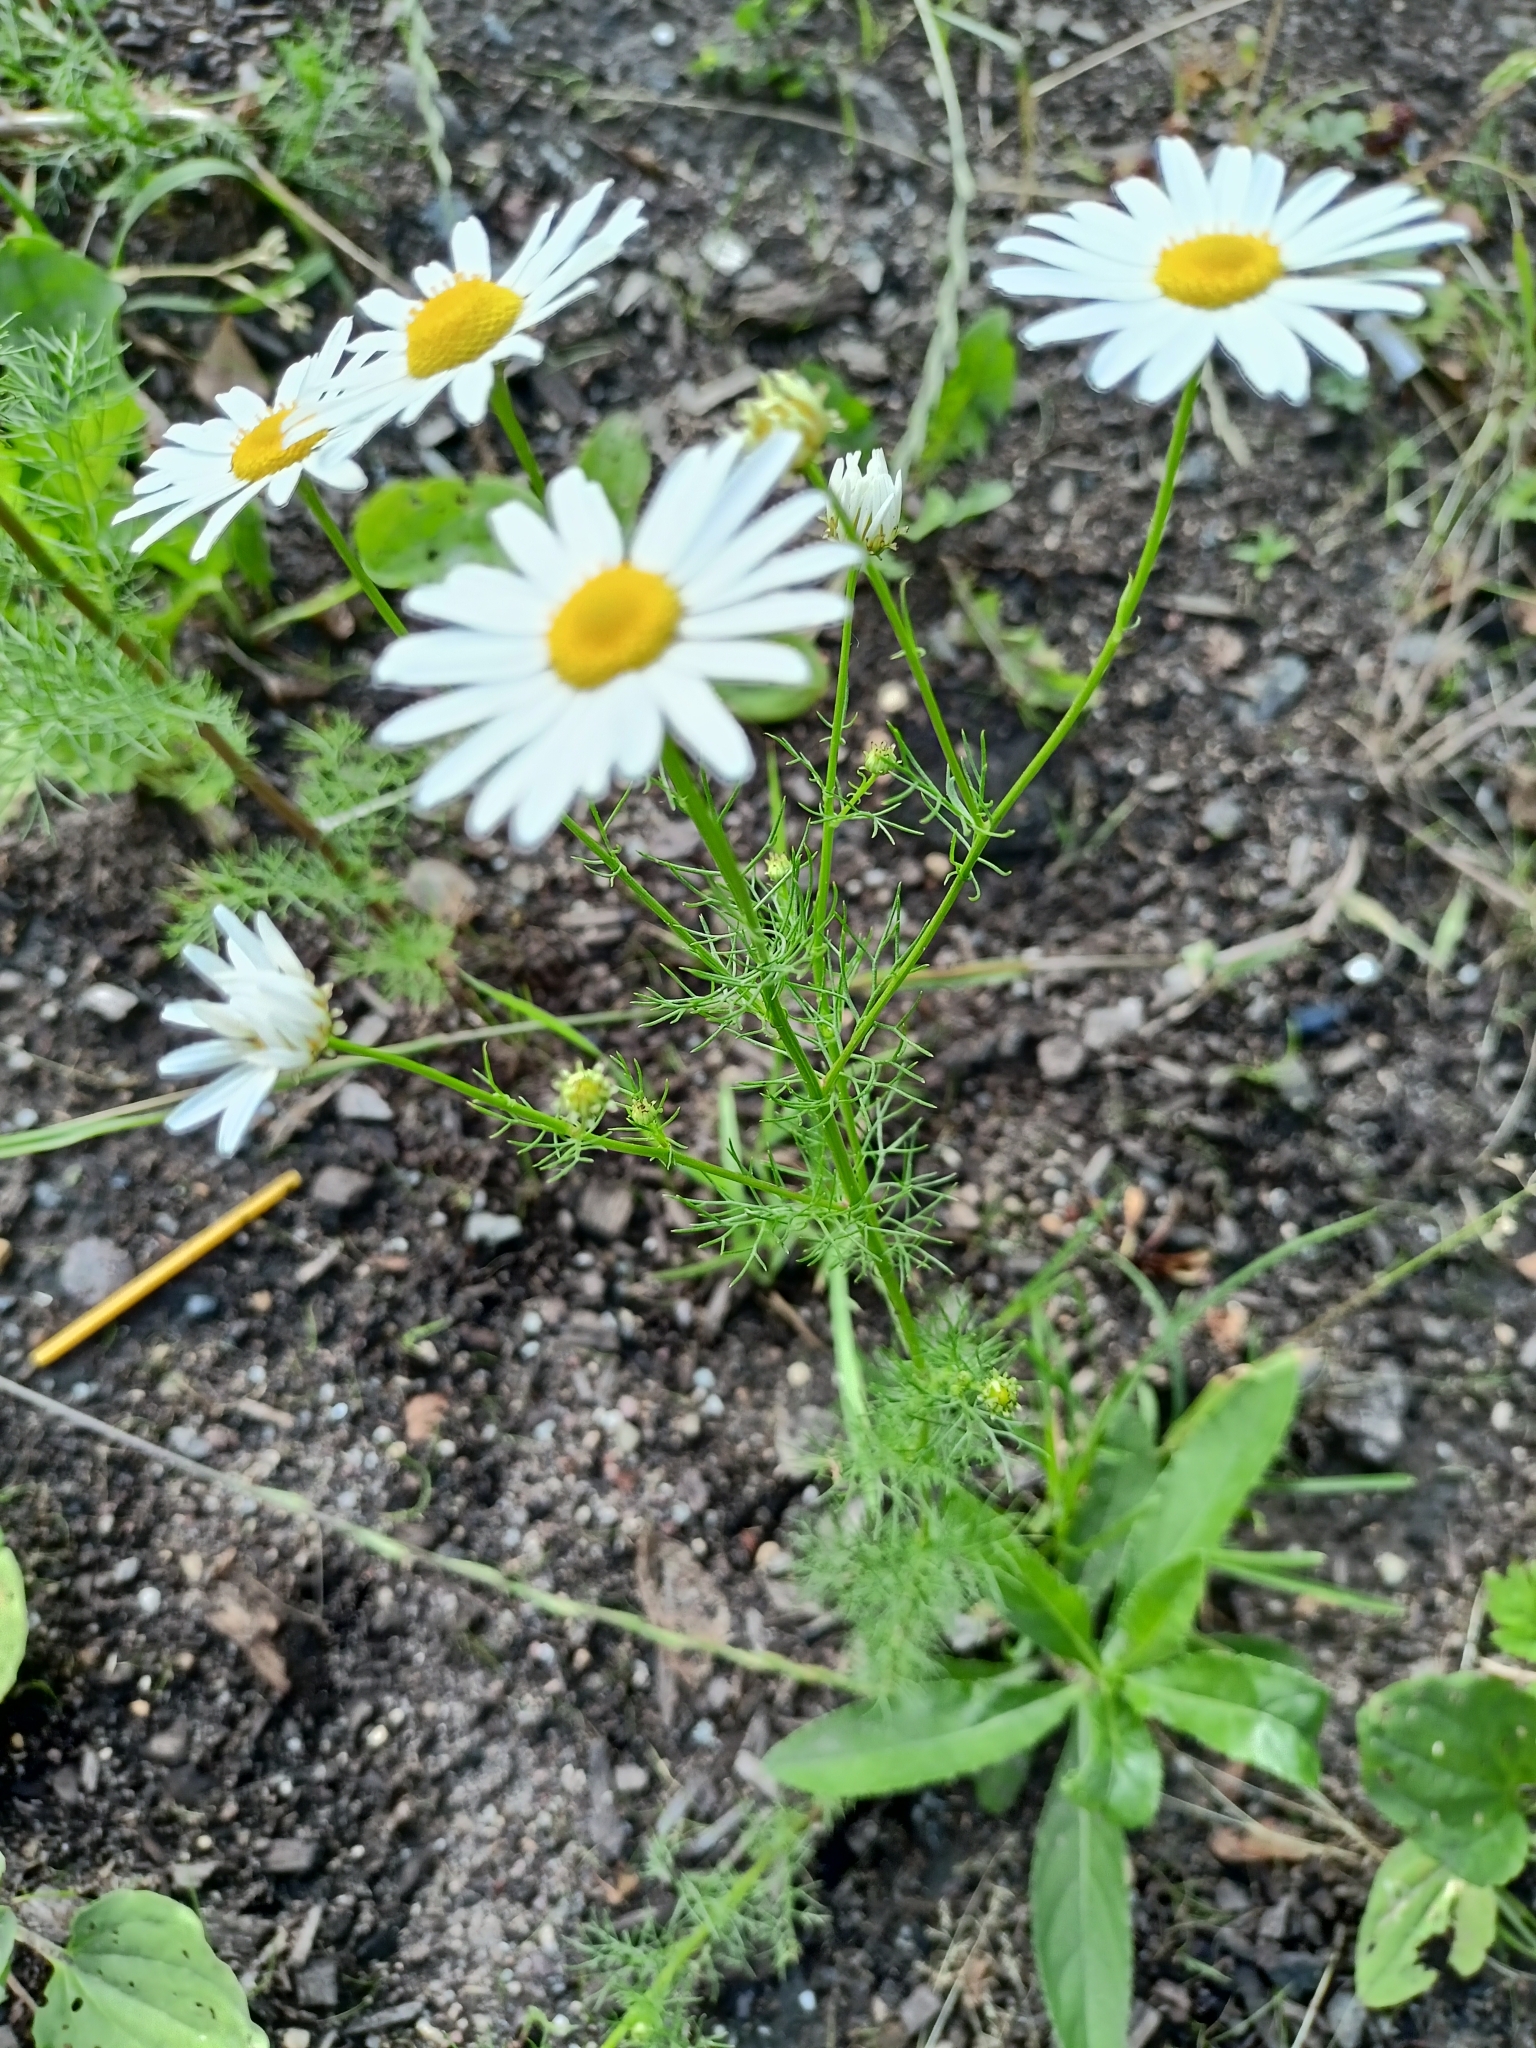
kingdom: Plantae
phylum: Tracheophyta
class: Magnoliopsida
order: Asterales
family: Asteraceae
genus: Tripleurospermum
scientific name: Tripleurospermum inodorum
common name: Scentless mayweed
